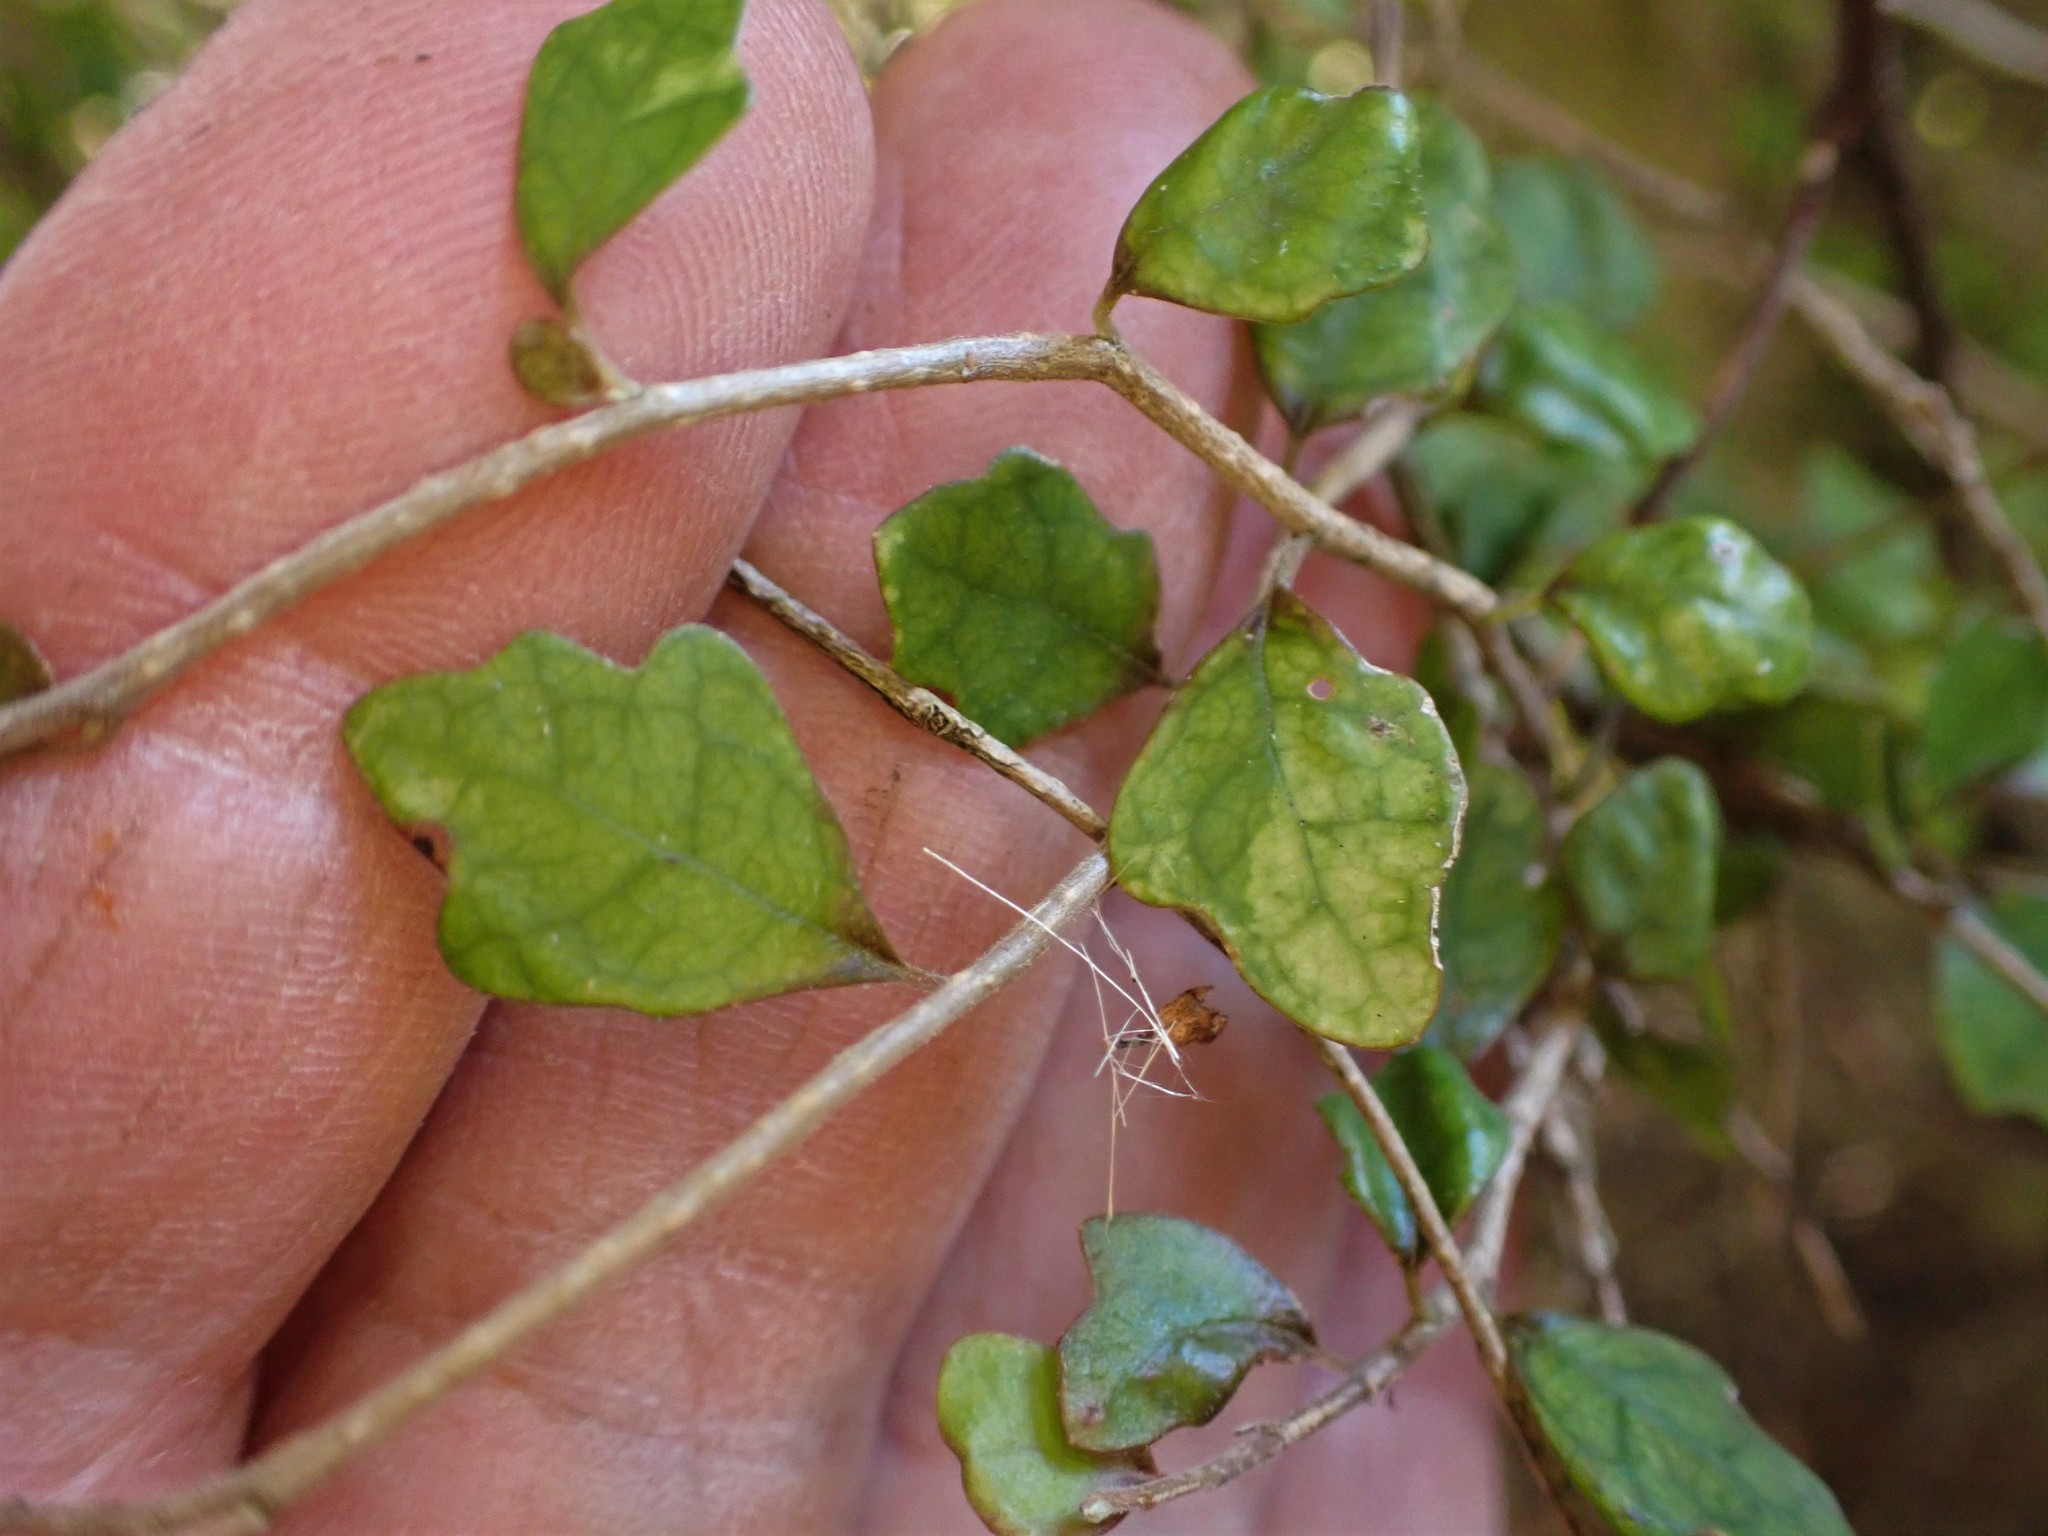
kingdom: Plantae
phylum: Tracheophyta
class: Magnoliopsida
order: Apiales
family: Pennantiaceae
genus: Pennantia
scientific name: Pennantia corymbosa
